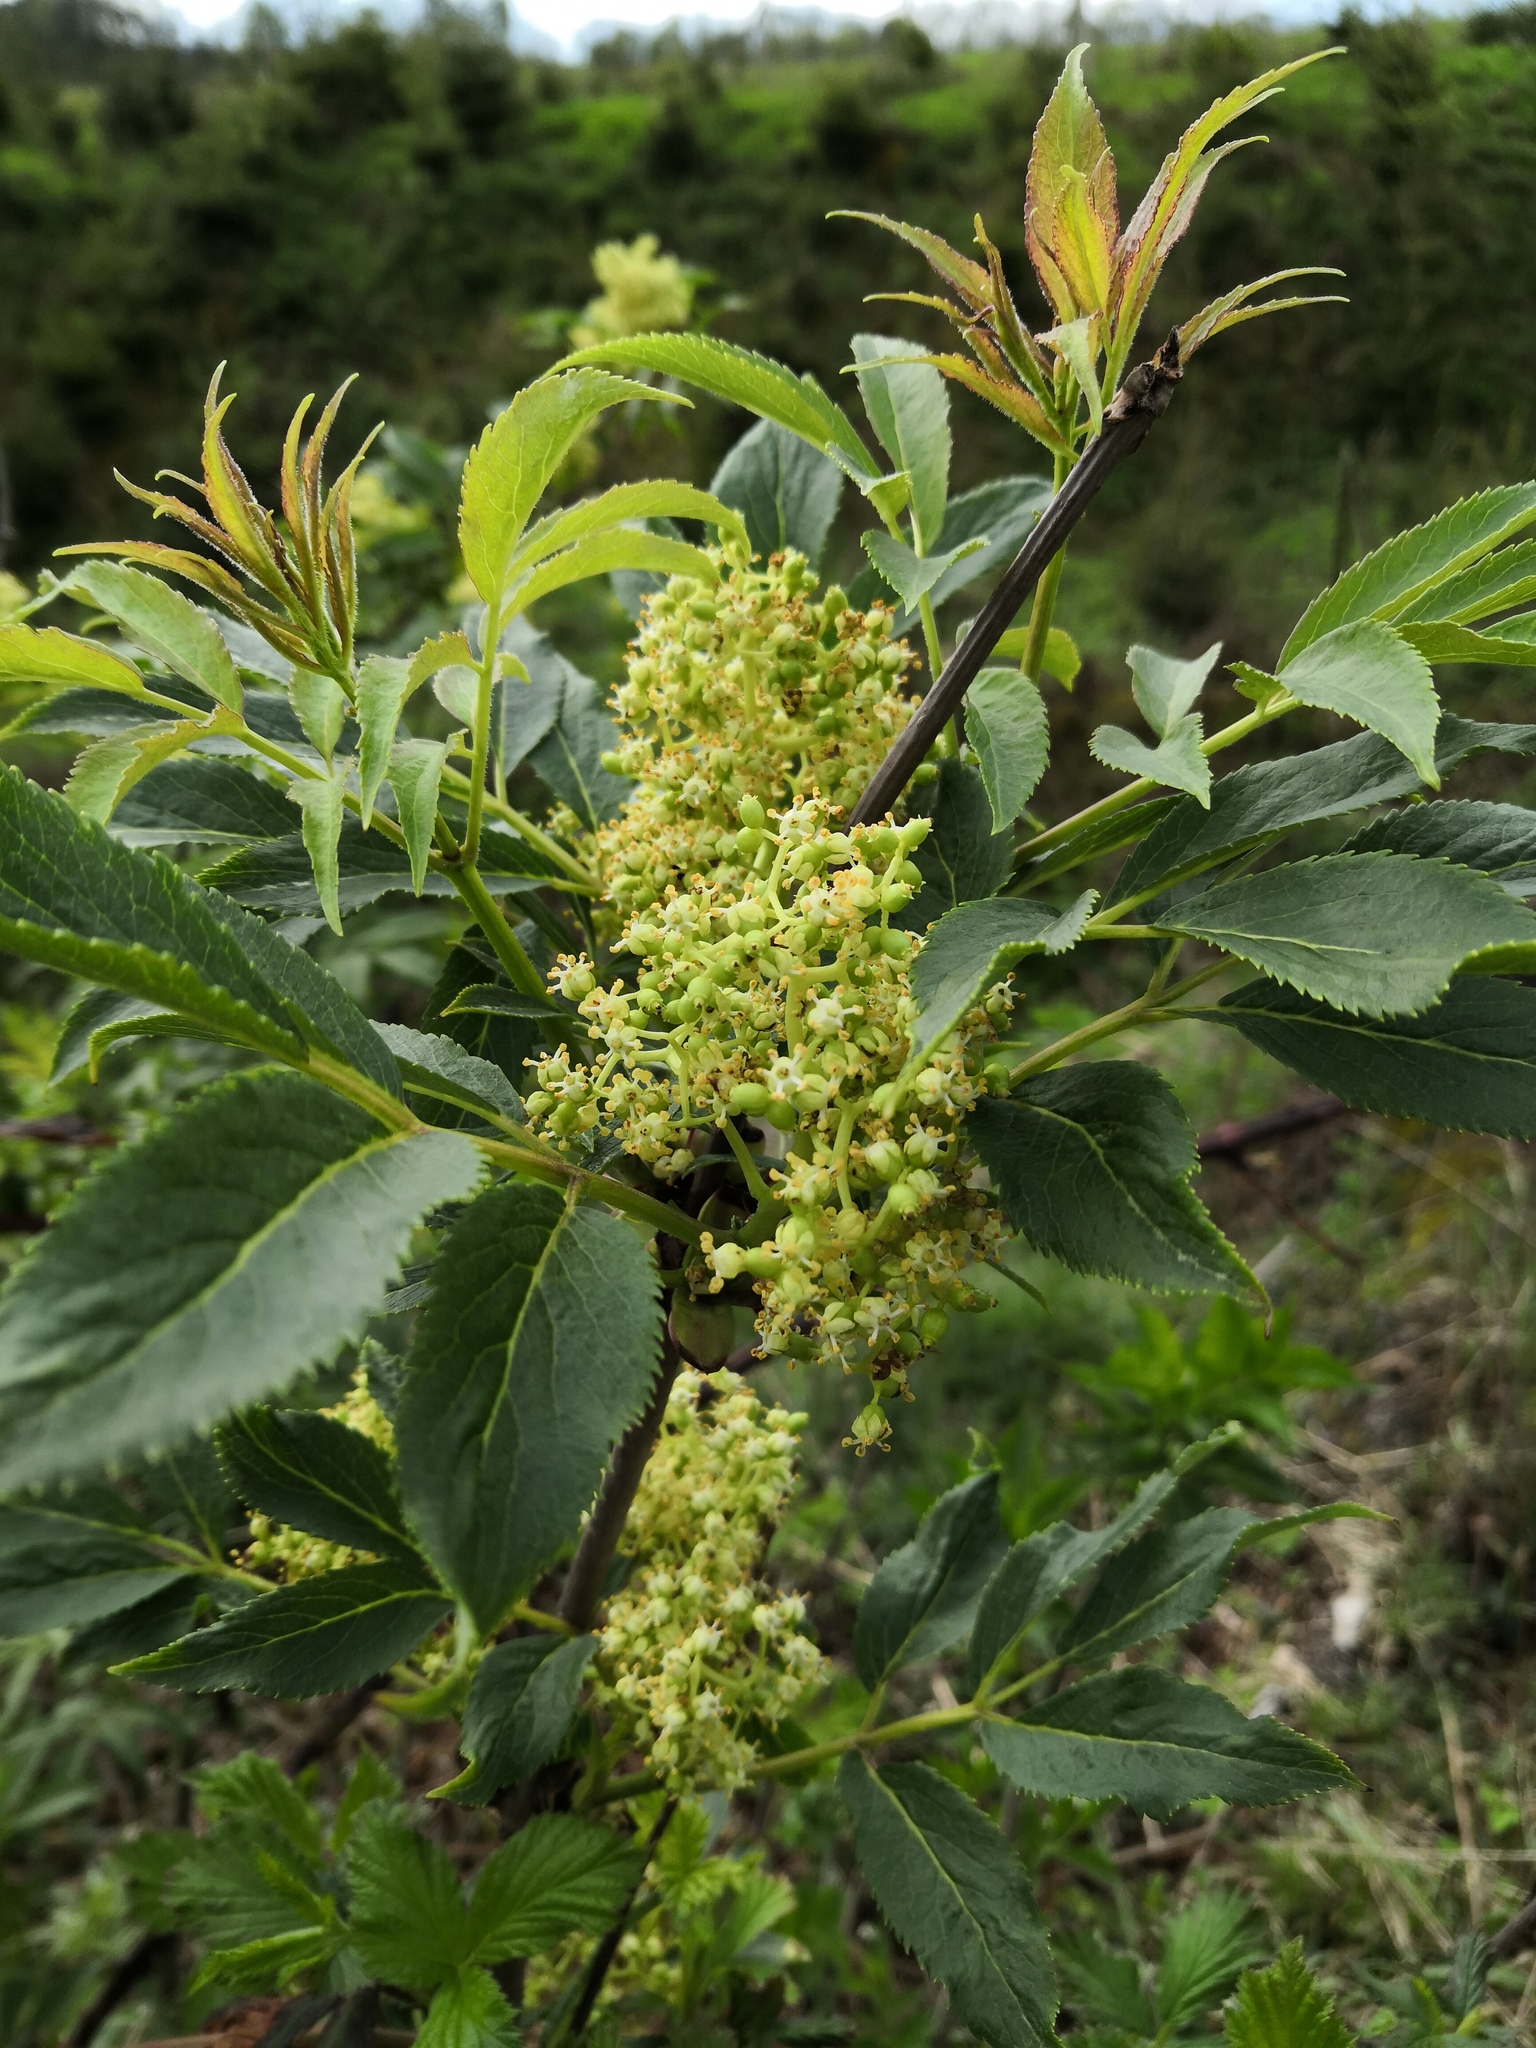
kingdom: Plantae
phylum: Tracheophyta
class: Magnoliopsida
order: Dipsacales
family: Viburnaceae
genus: Sambucus
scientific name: Sambucus racemosa
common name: Red-berried elder
